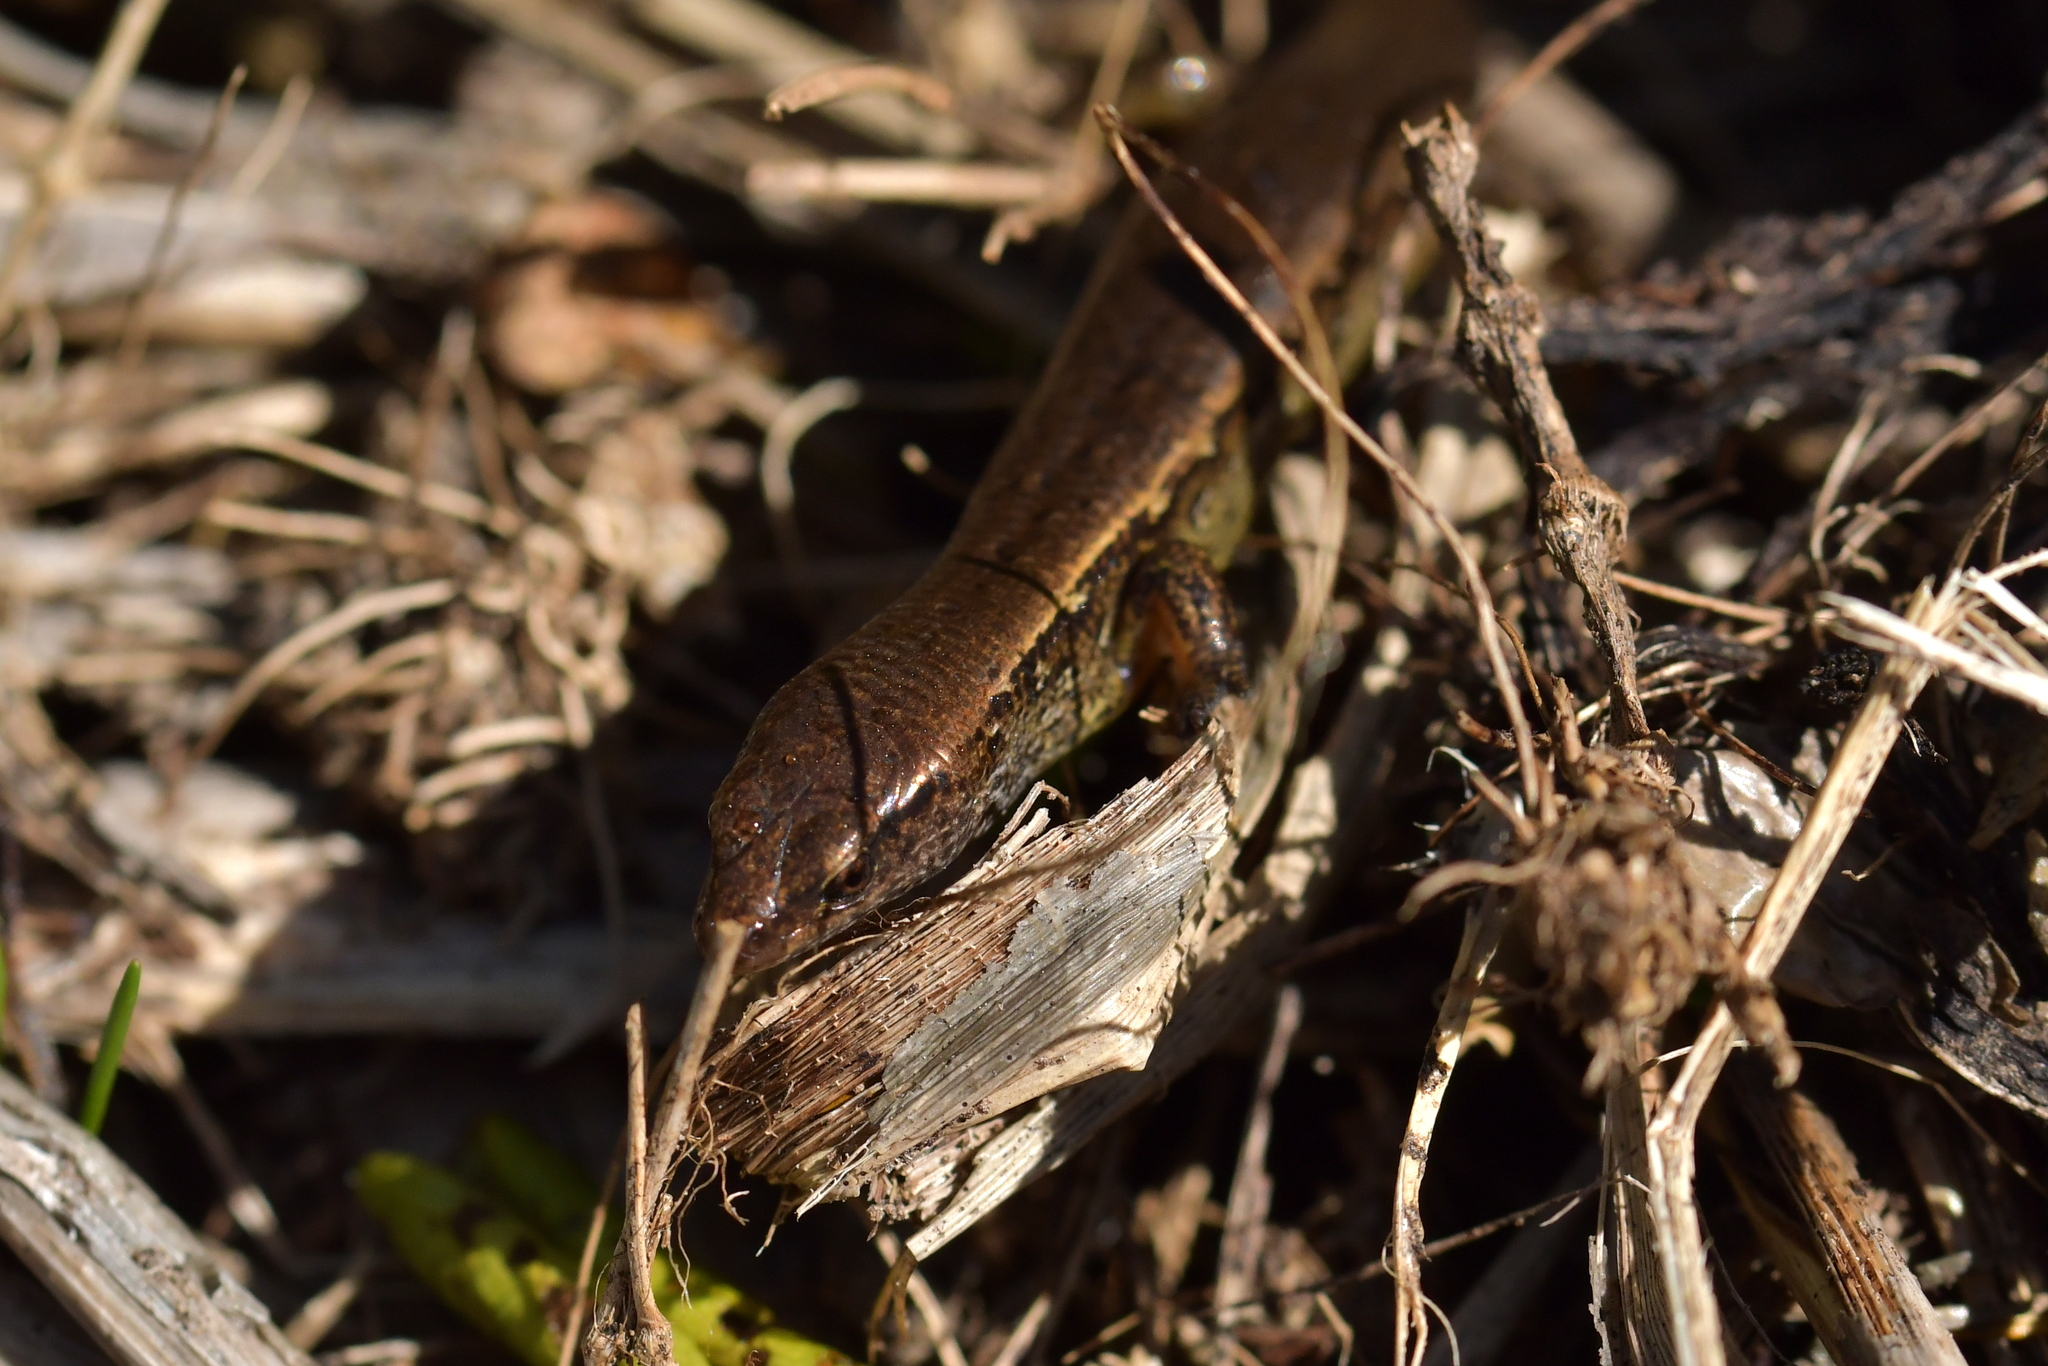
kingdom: Animalia
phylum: Chordata
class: Squamata
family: Scincidae
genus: Oligosoma
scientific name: Oligosoma aeneum
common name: Copper skink
